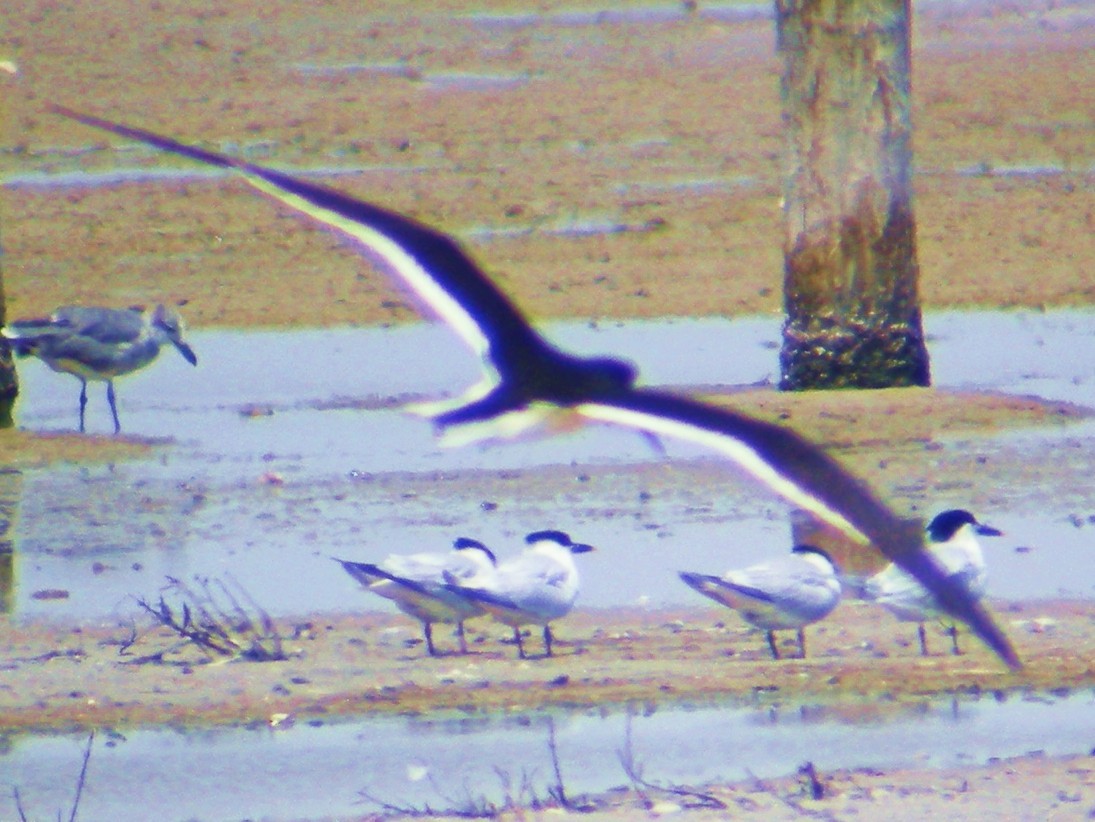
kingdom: Animalia
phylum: Chordata
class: Aves
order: Charadriiformes
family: Laridae
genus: Thalasseus
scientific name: Thalasseus sandvicensis
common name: Sandwich tern
